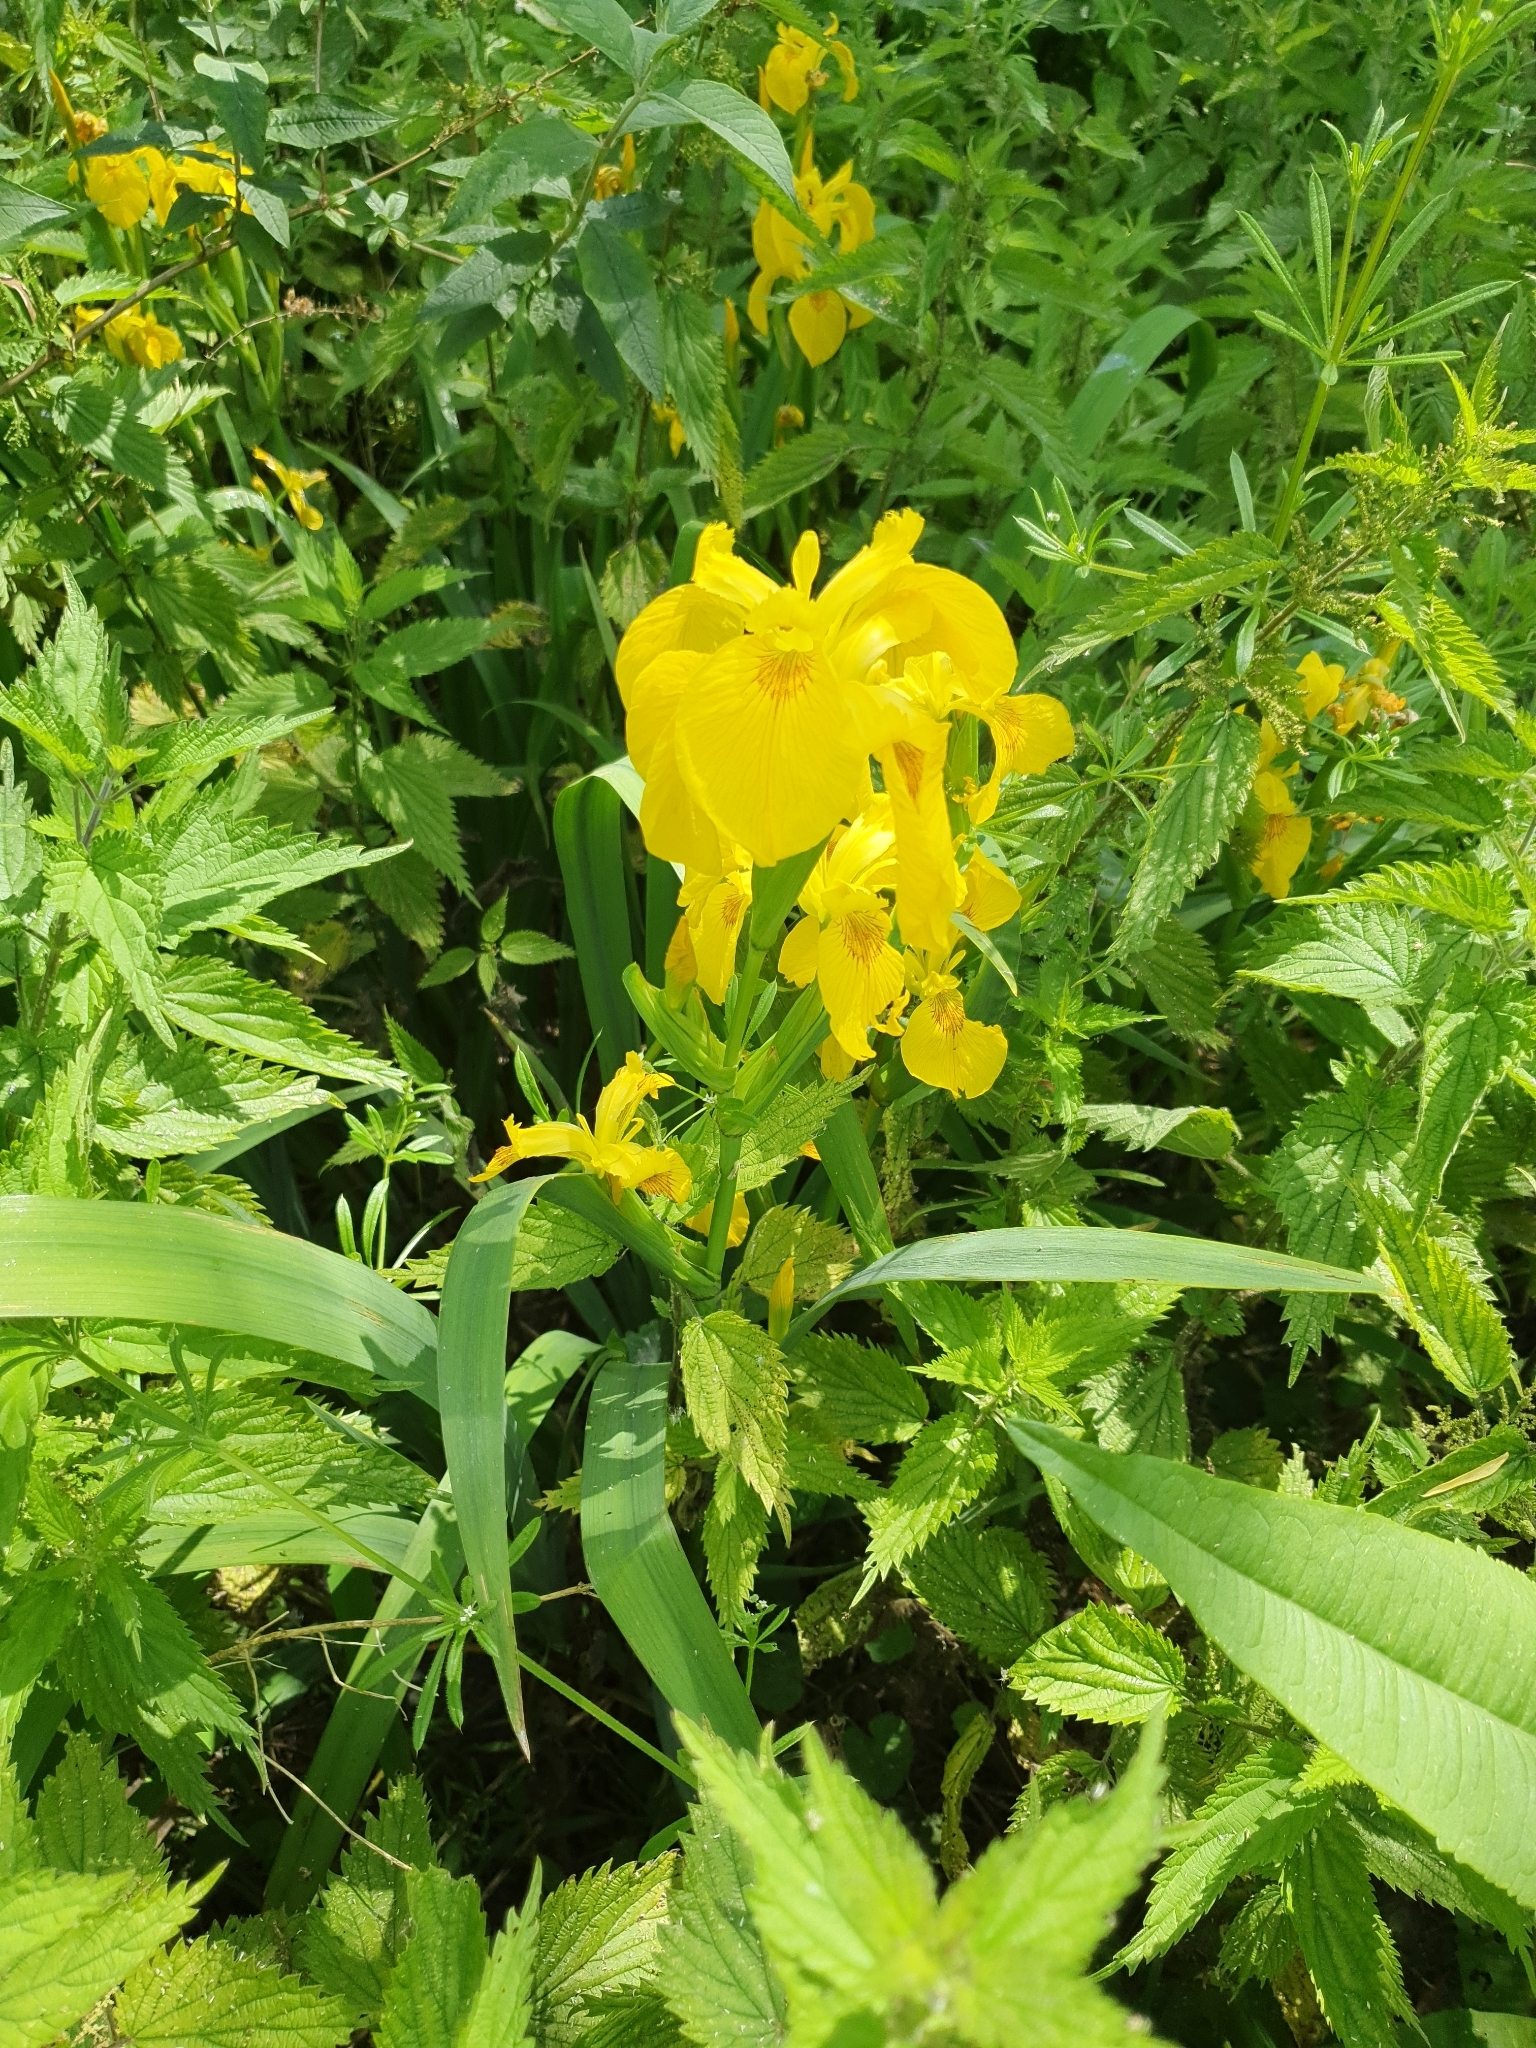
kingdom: Plantae
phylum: Tracheophyta
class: Liliopsida
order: Asparagales
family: Iridaceae
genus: Iris
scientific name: Iris pseudacorus
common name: Yellow flag
